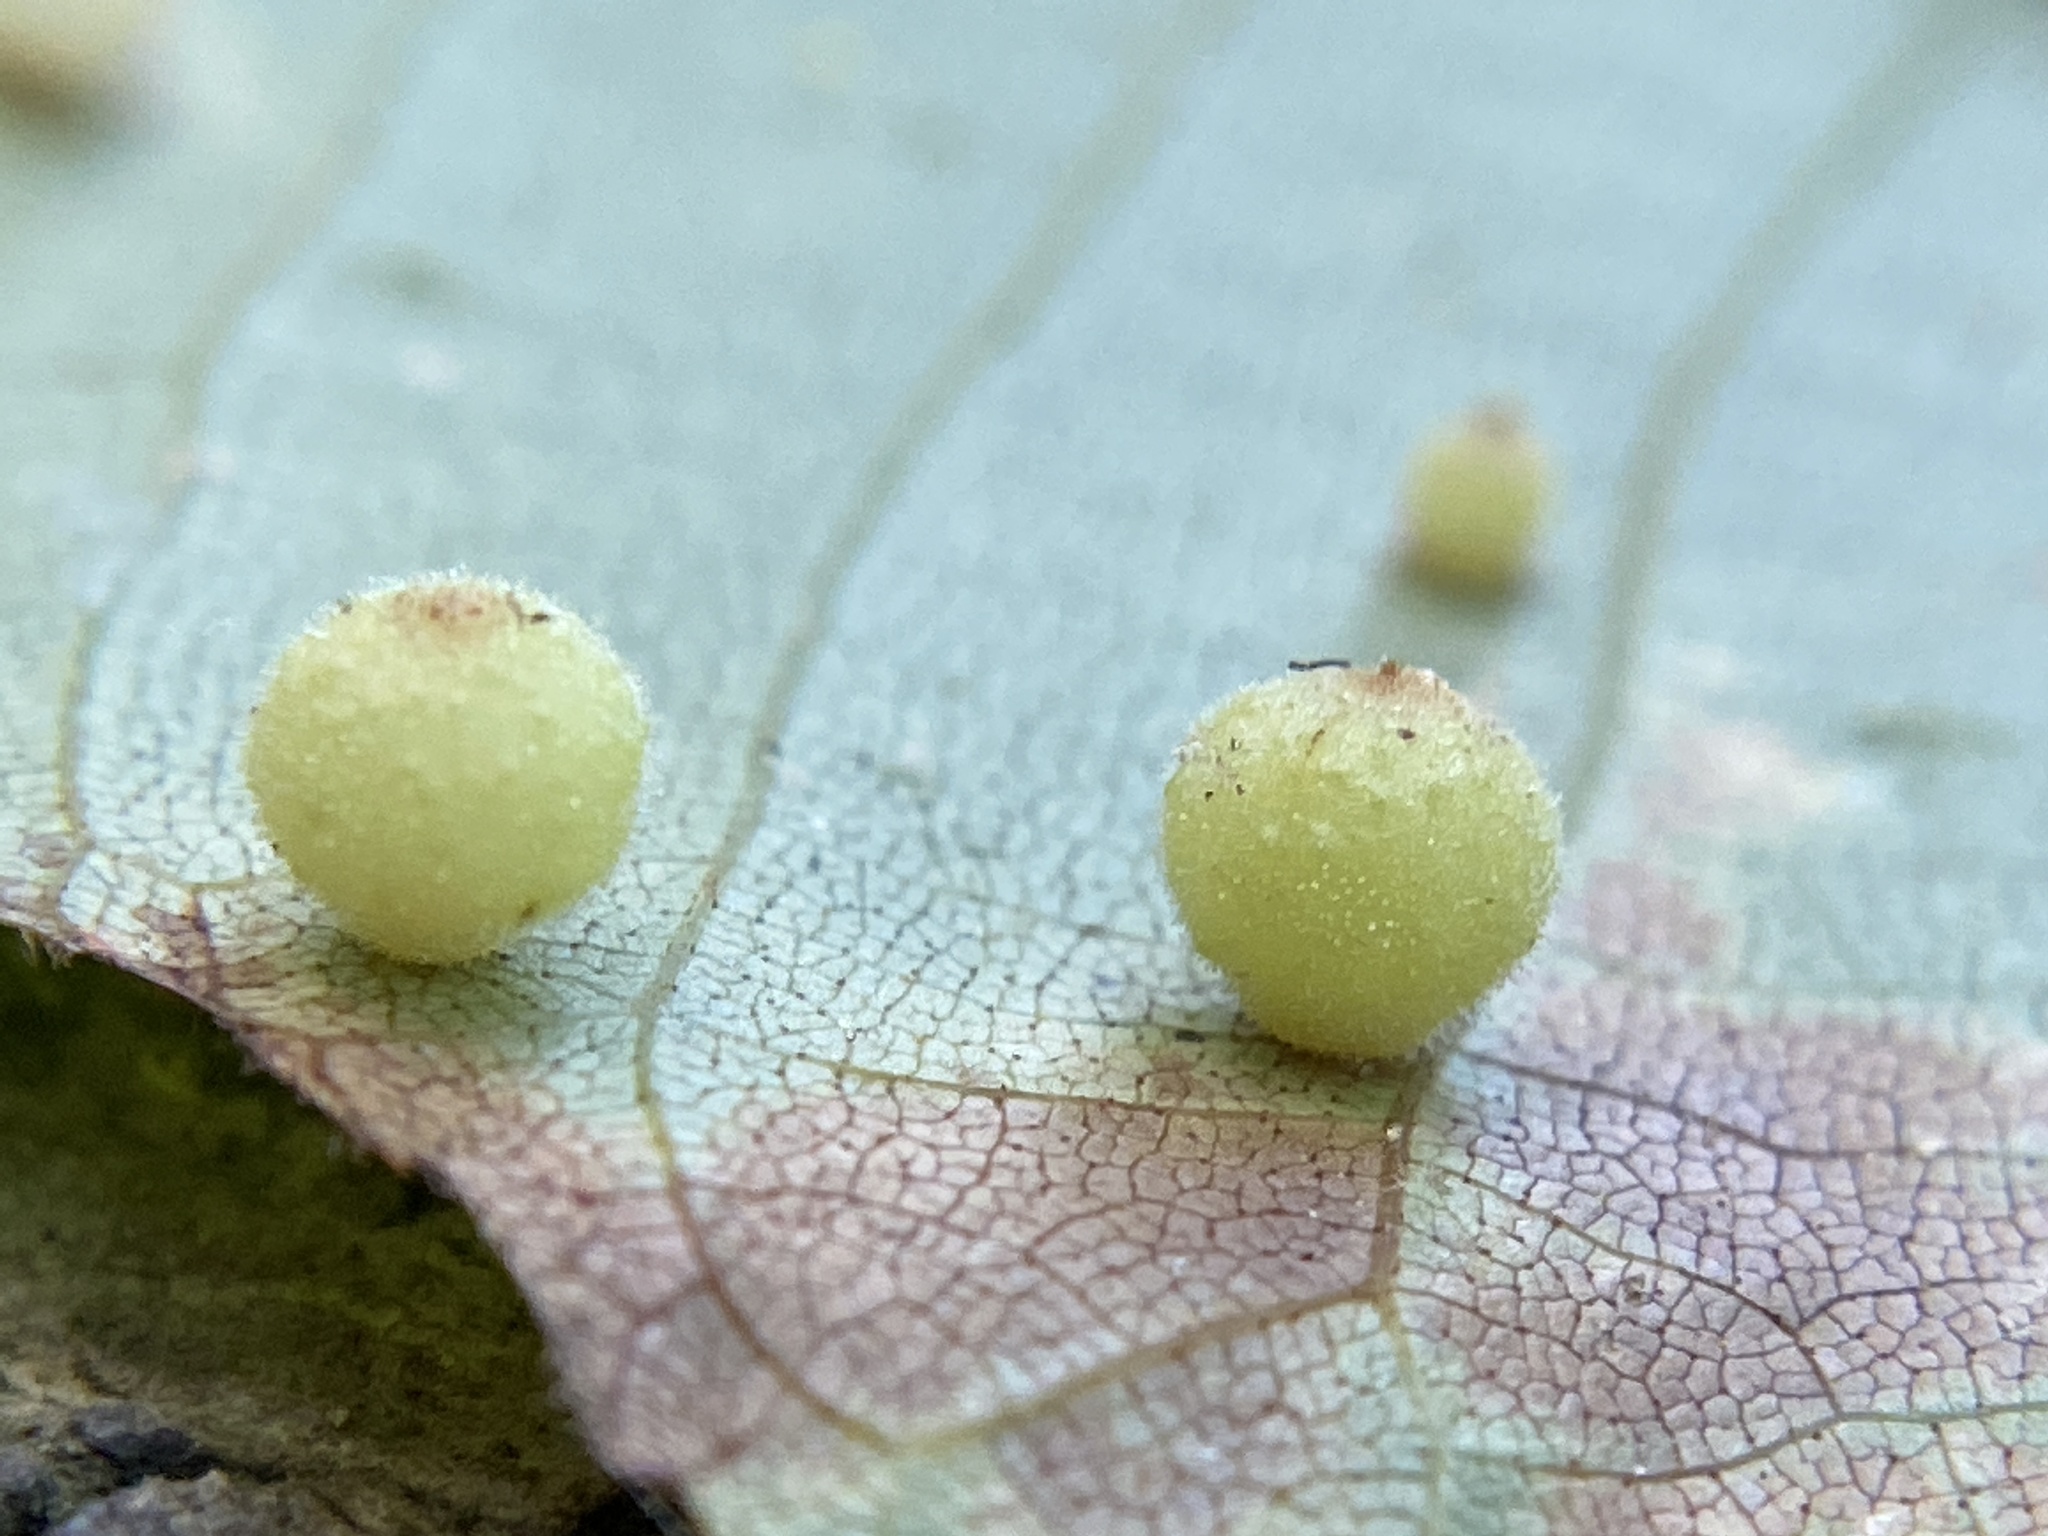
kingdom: Animalia
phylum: Arthropoda
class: Insecta
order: Diptera
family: Cecidomyiidae
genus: Caryomyia
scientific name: Caryomyia spiniglobus
